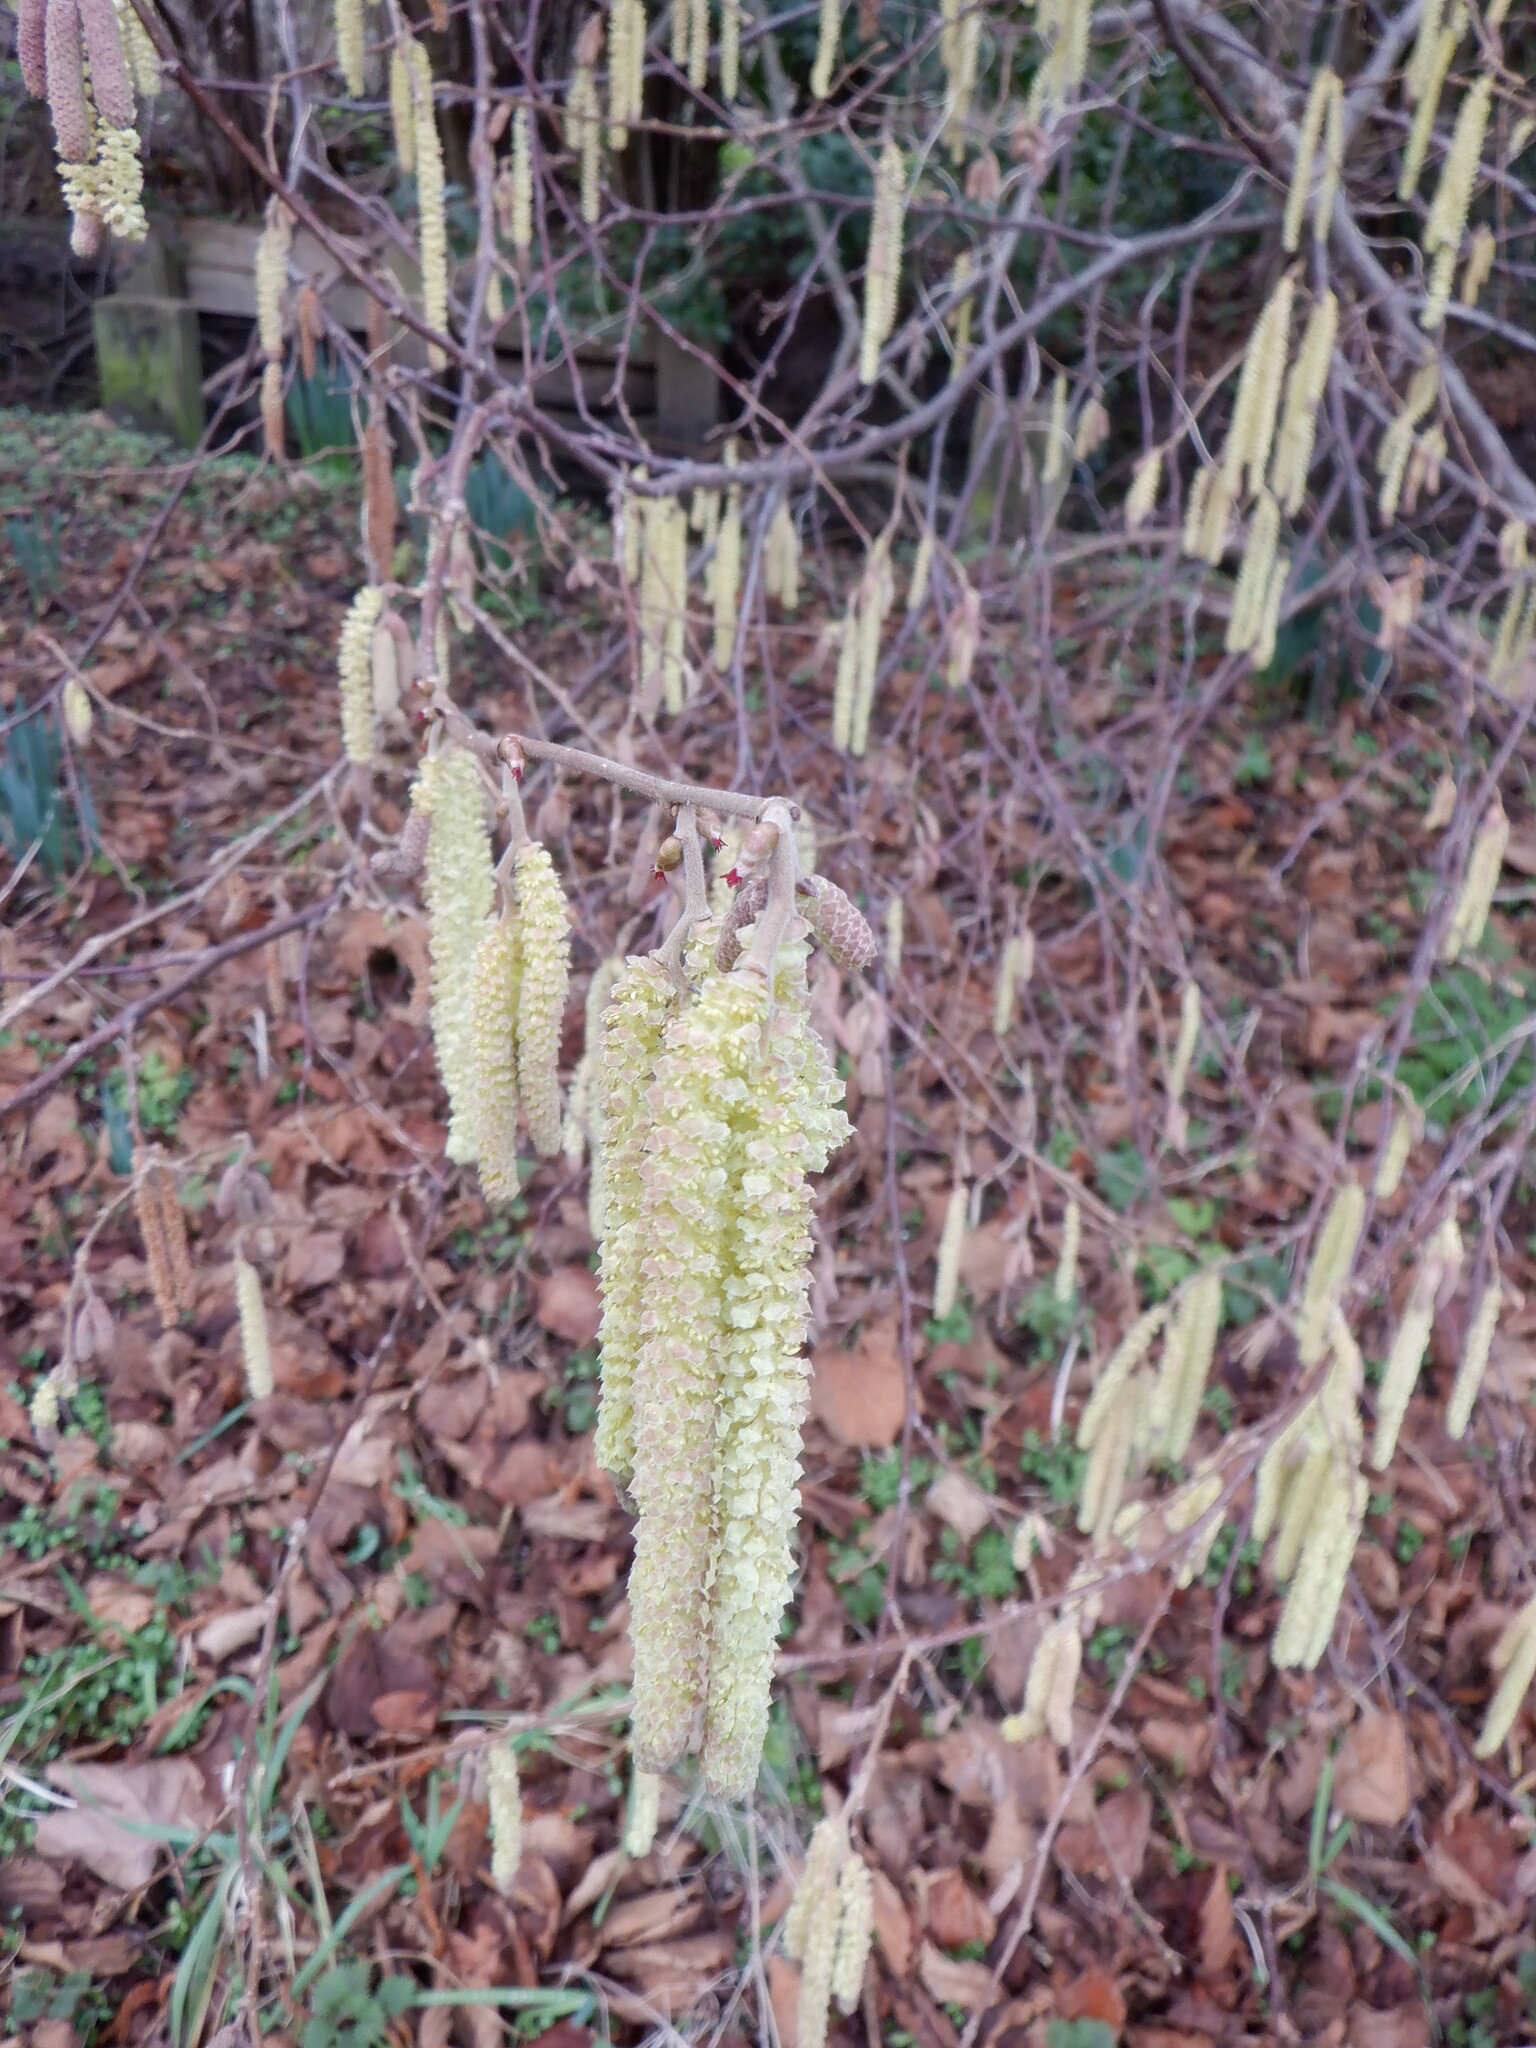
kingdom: Plantae
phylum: Tracheophyta
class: Magnoliopsida
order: Fagales
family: Betulaceae
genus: Corylus
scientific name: Corylus avellana
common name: European hazel
